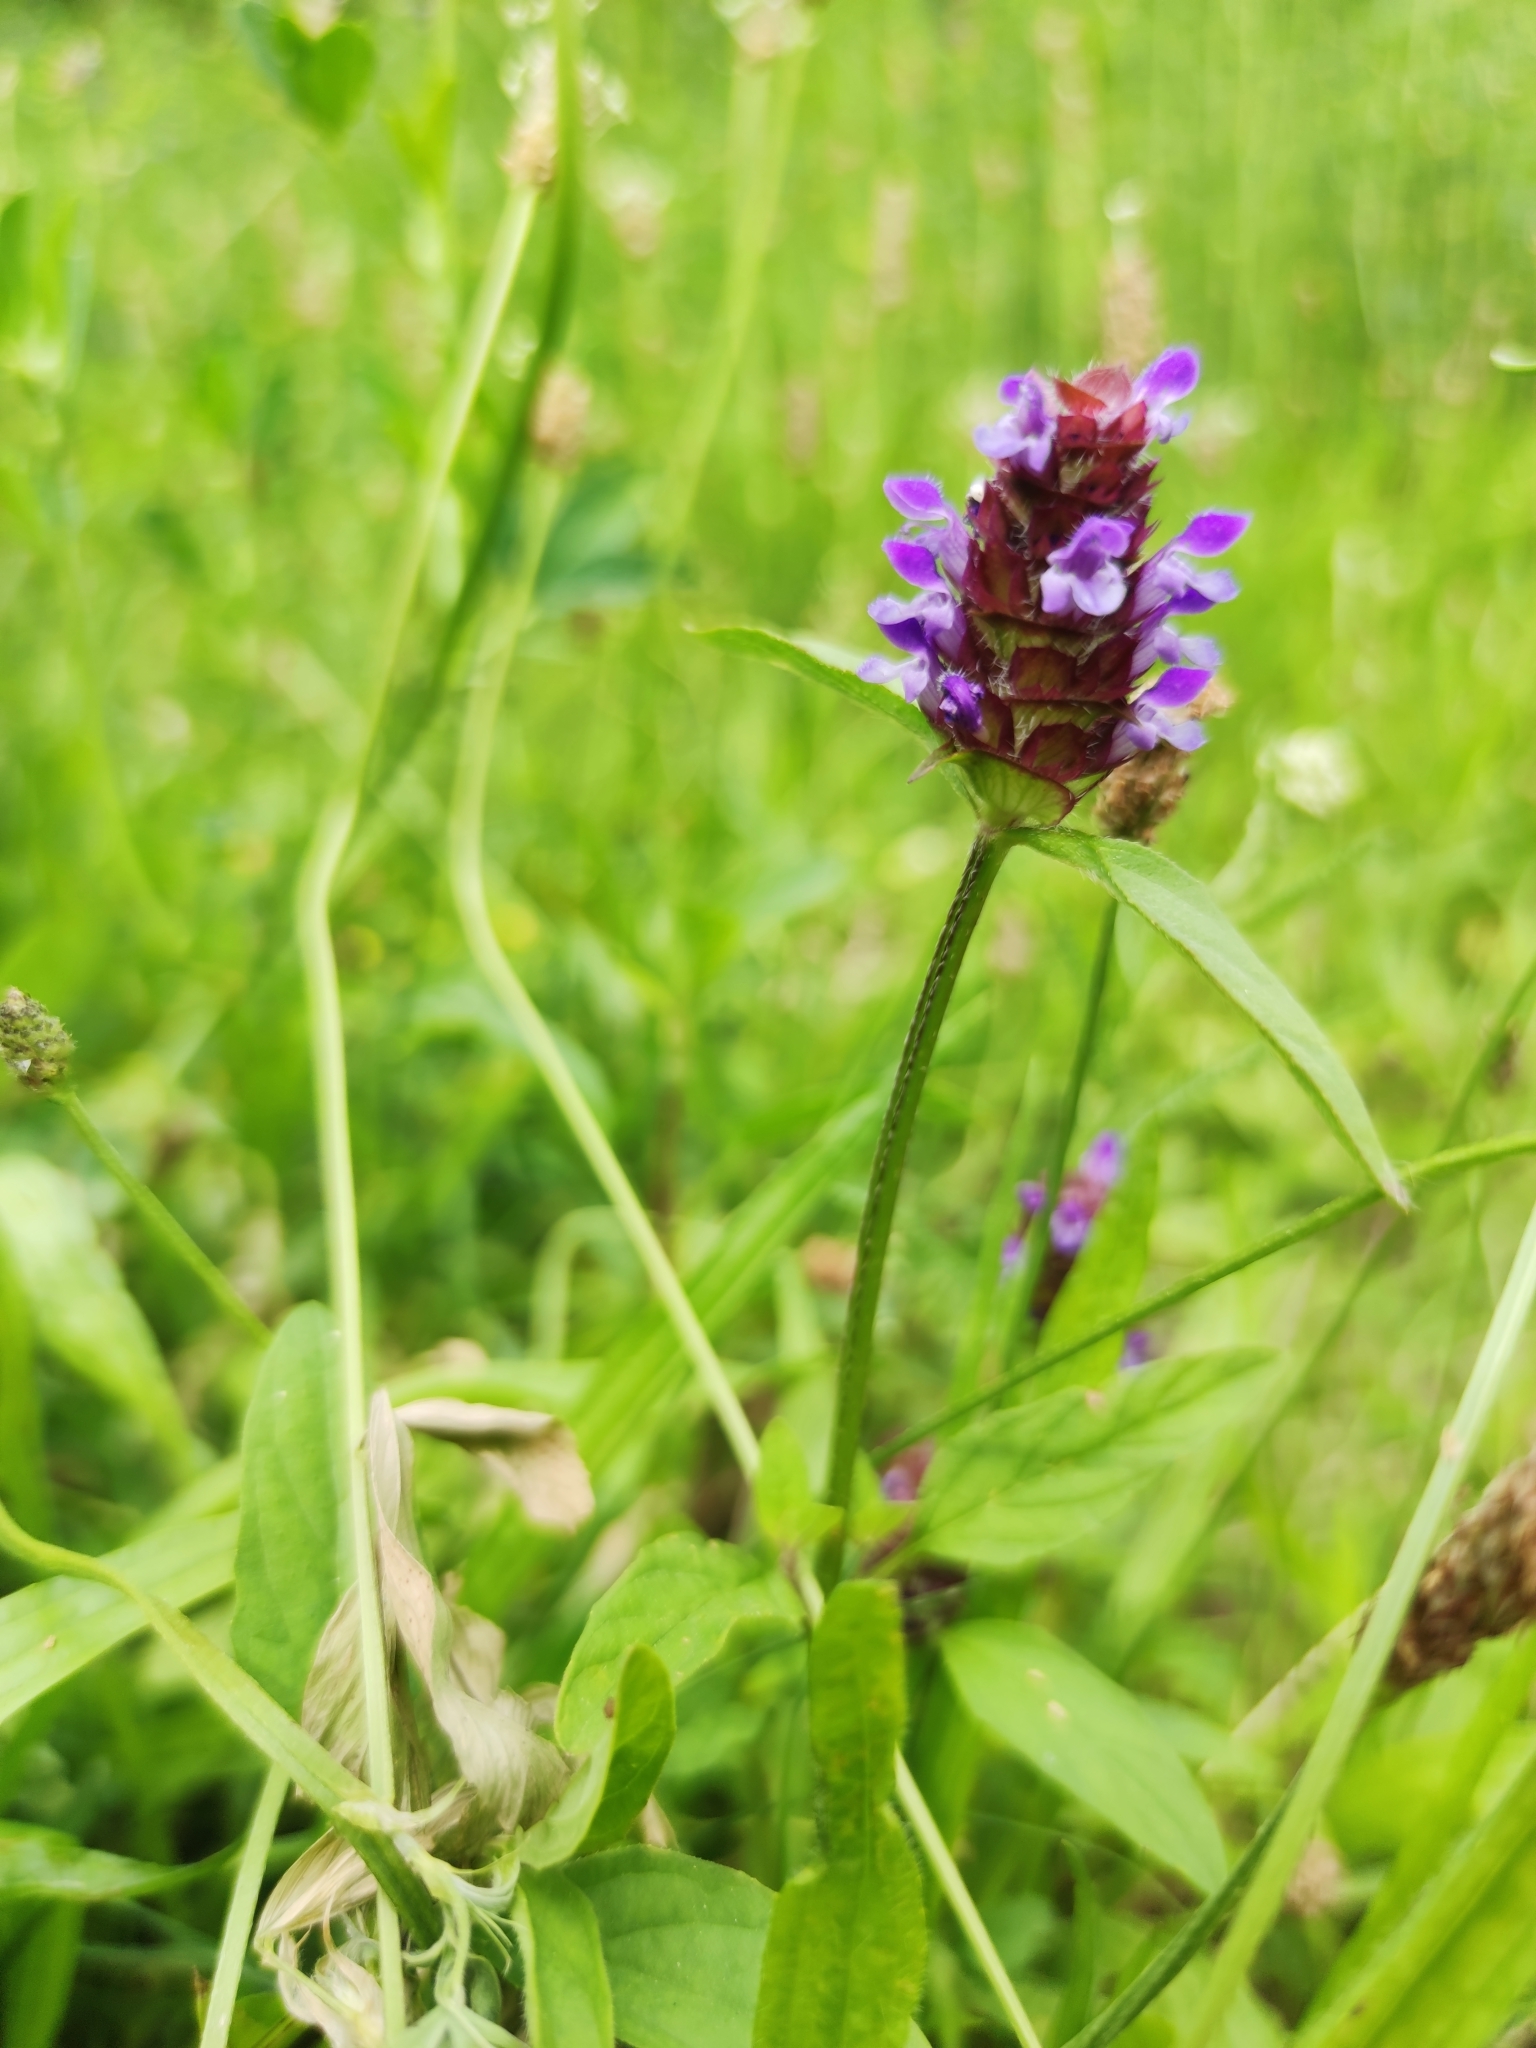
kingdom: Plantae
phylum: Tracheophyta
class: Magnoliopsida
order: Lamiales
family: Lamiaceae
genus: Prunella
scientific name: Prunella vulgaris
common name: Heal-all
